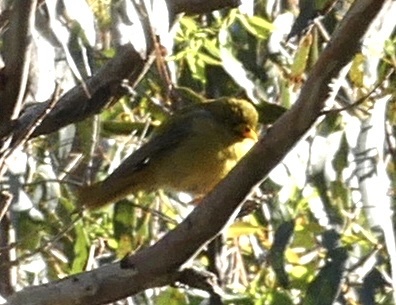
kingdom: Animalia
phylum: Chordata
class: Aves
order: Passeriformes
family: Meliphagidae
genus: Manorina
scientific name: Manorina melanophrys
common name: Bell miner
